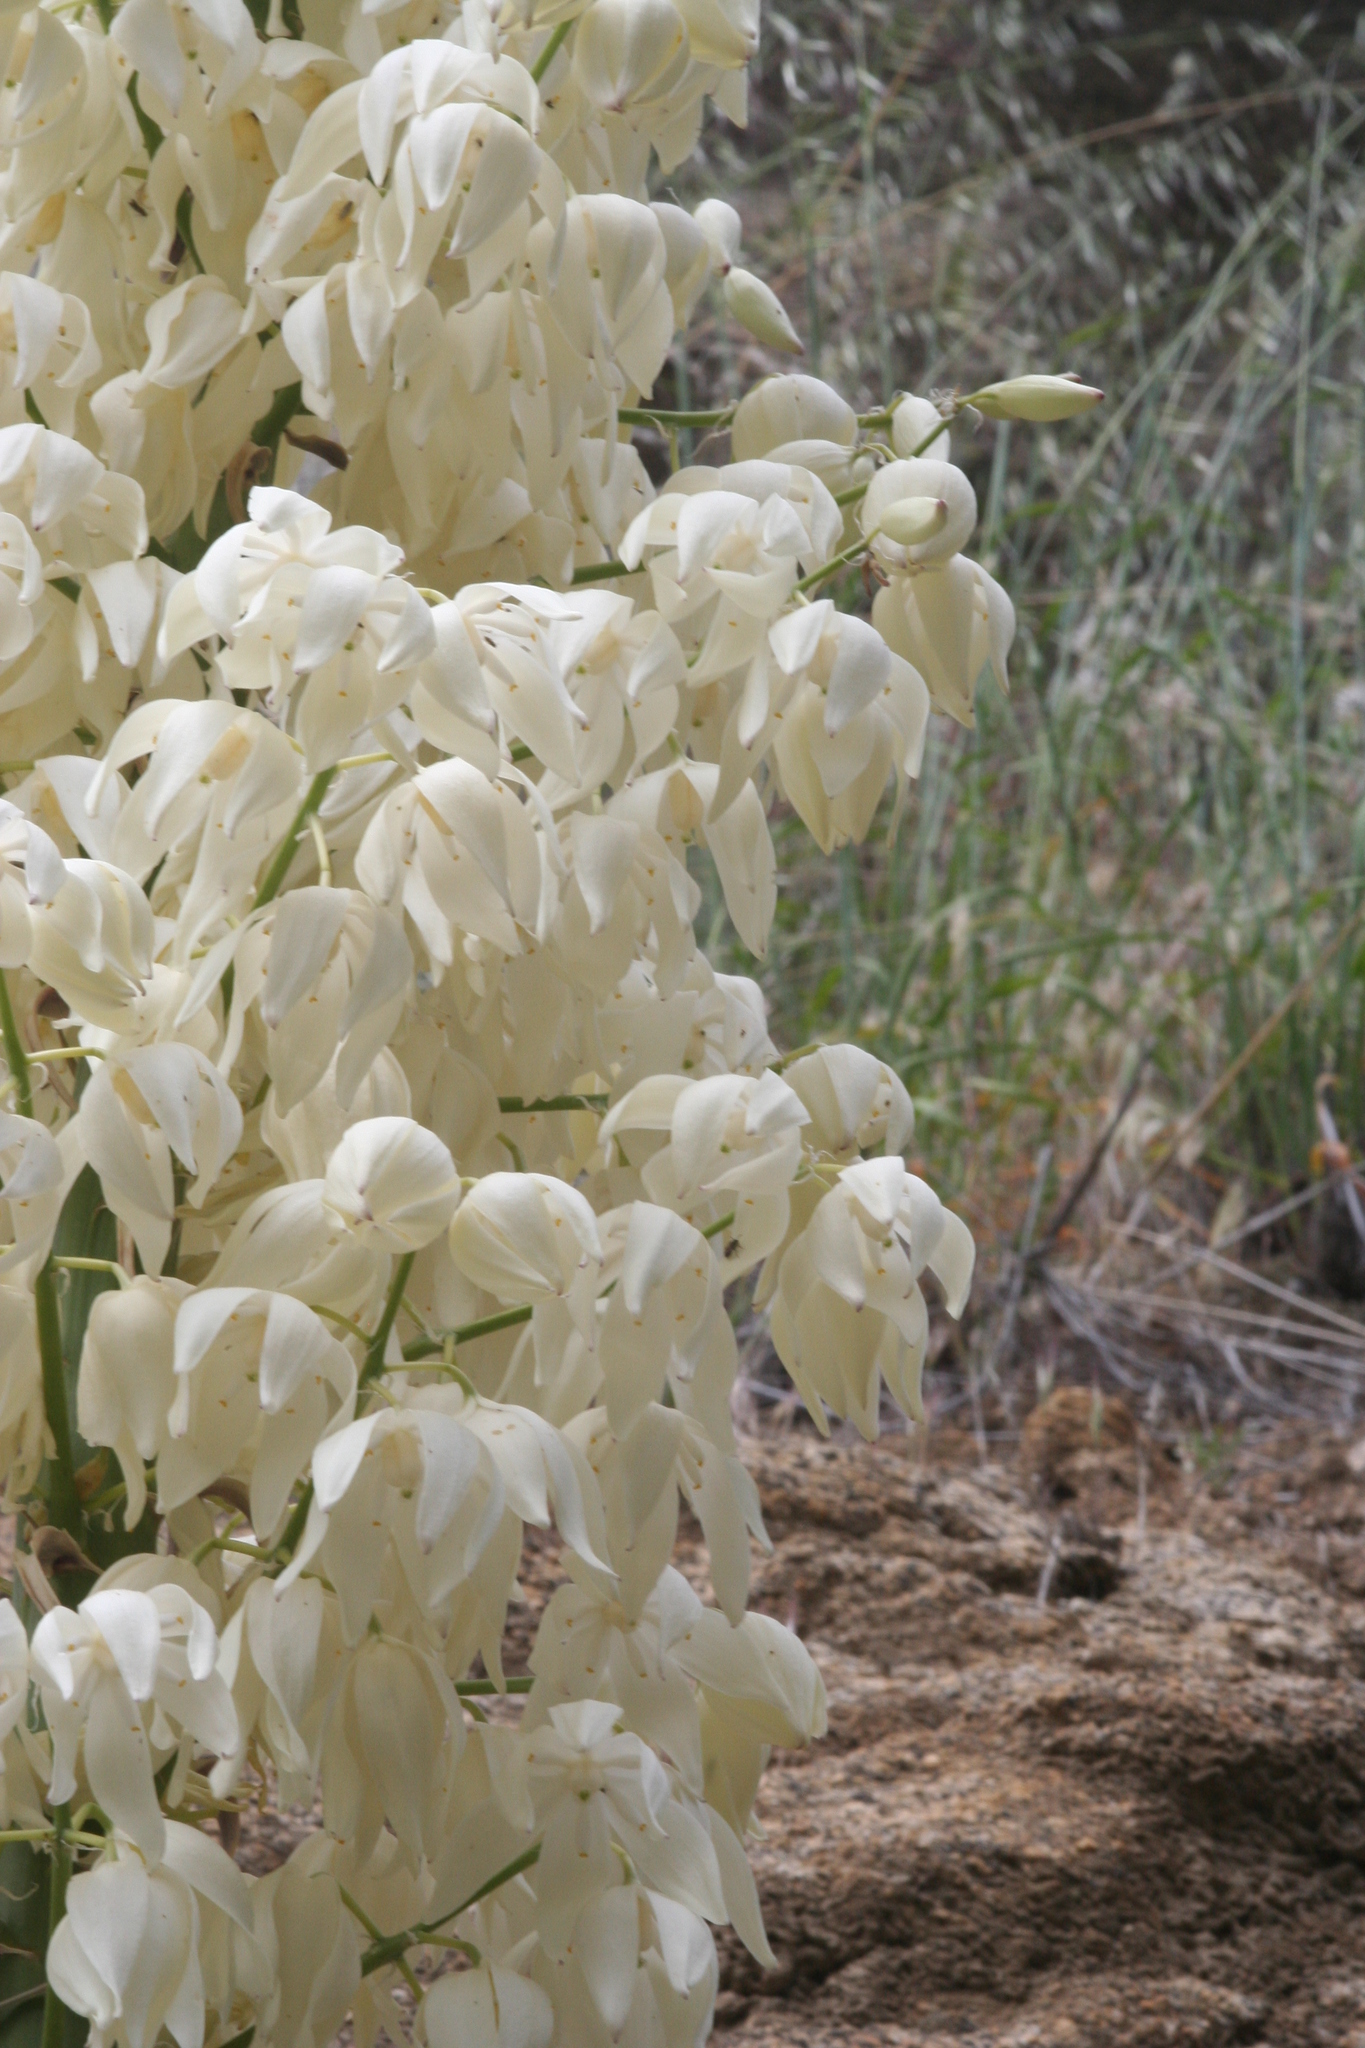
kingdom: Plantae
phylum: Tracheophyta
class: Liliopsida
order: Asparagales
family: Asparagaceae
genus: Hesperoyucca
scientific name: Hesperoyucca whipplei
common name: Our lord's-candle
